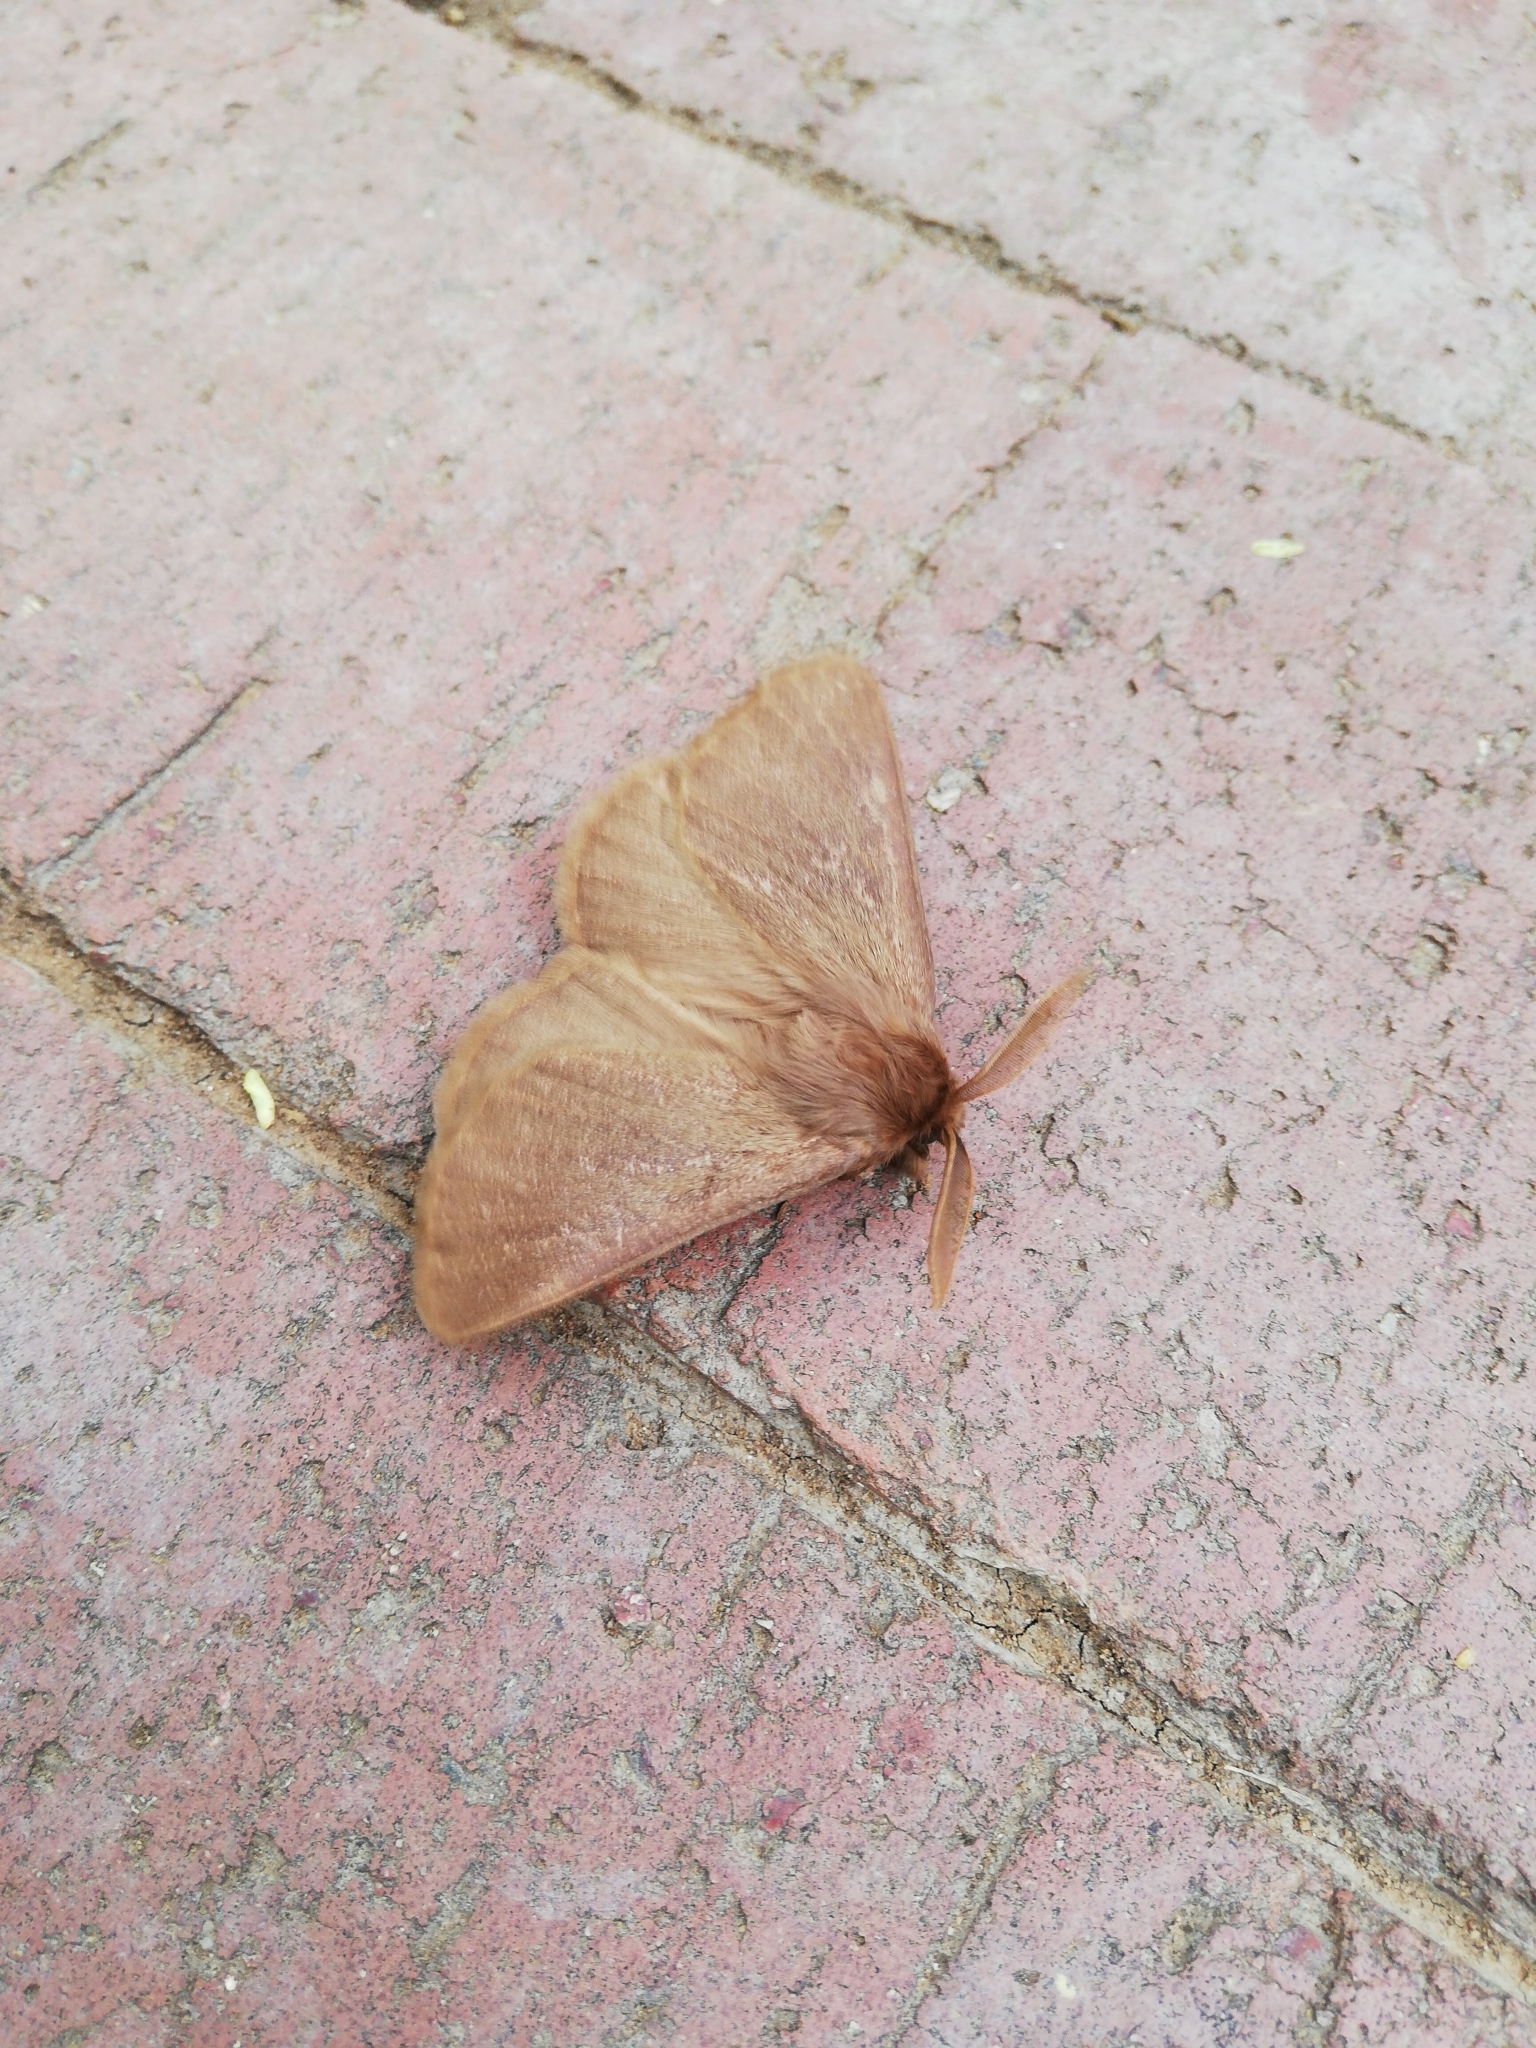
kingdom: Animalia
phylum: Arthropoda
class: Insecta
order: Lepidoptera
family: Eupterotidae
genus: Phyllalia
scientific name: Phyllalia patens
